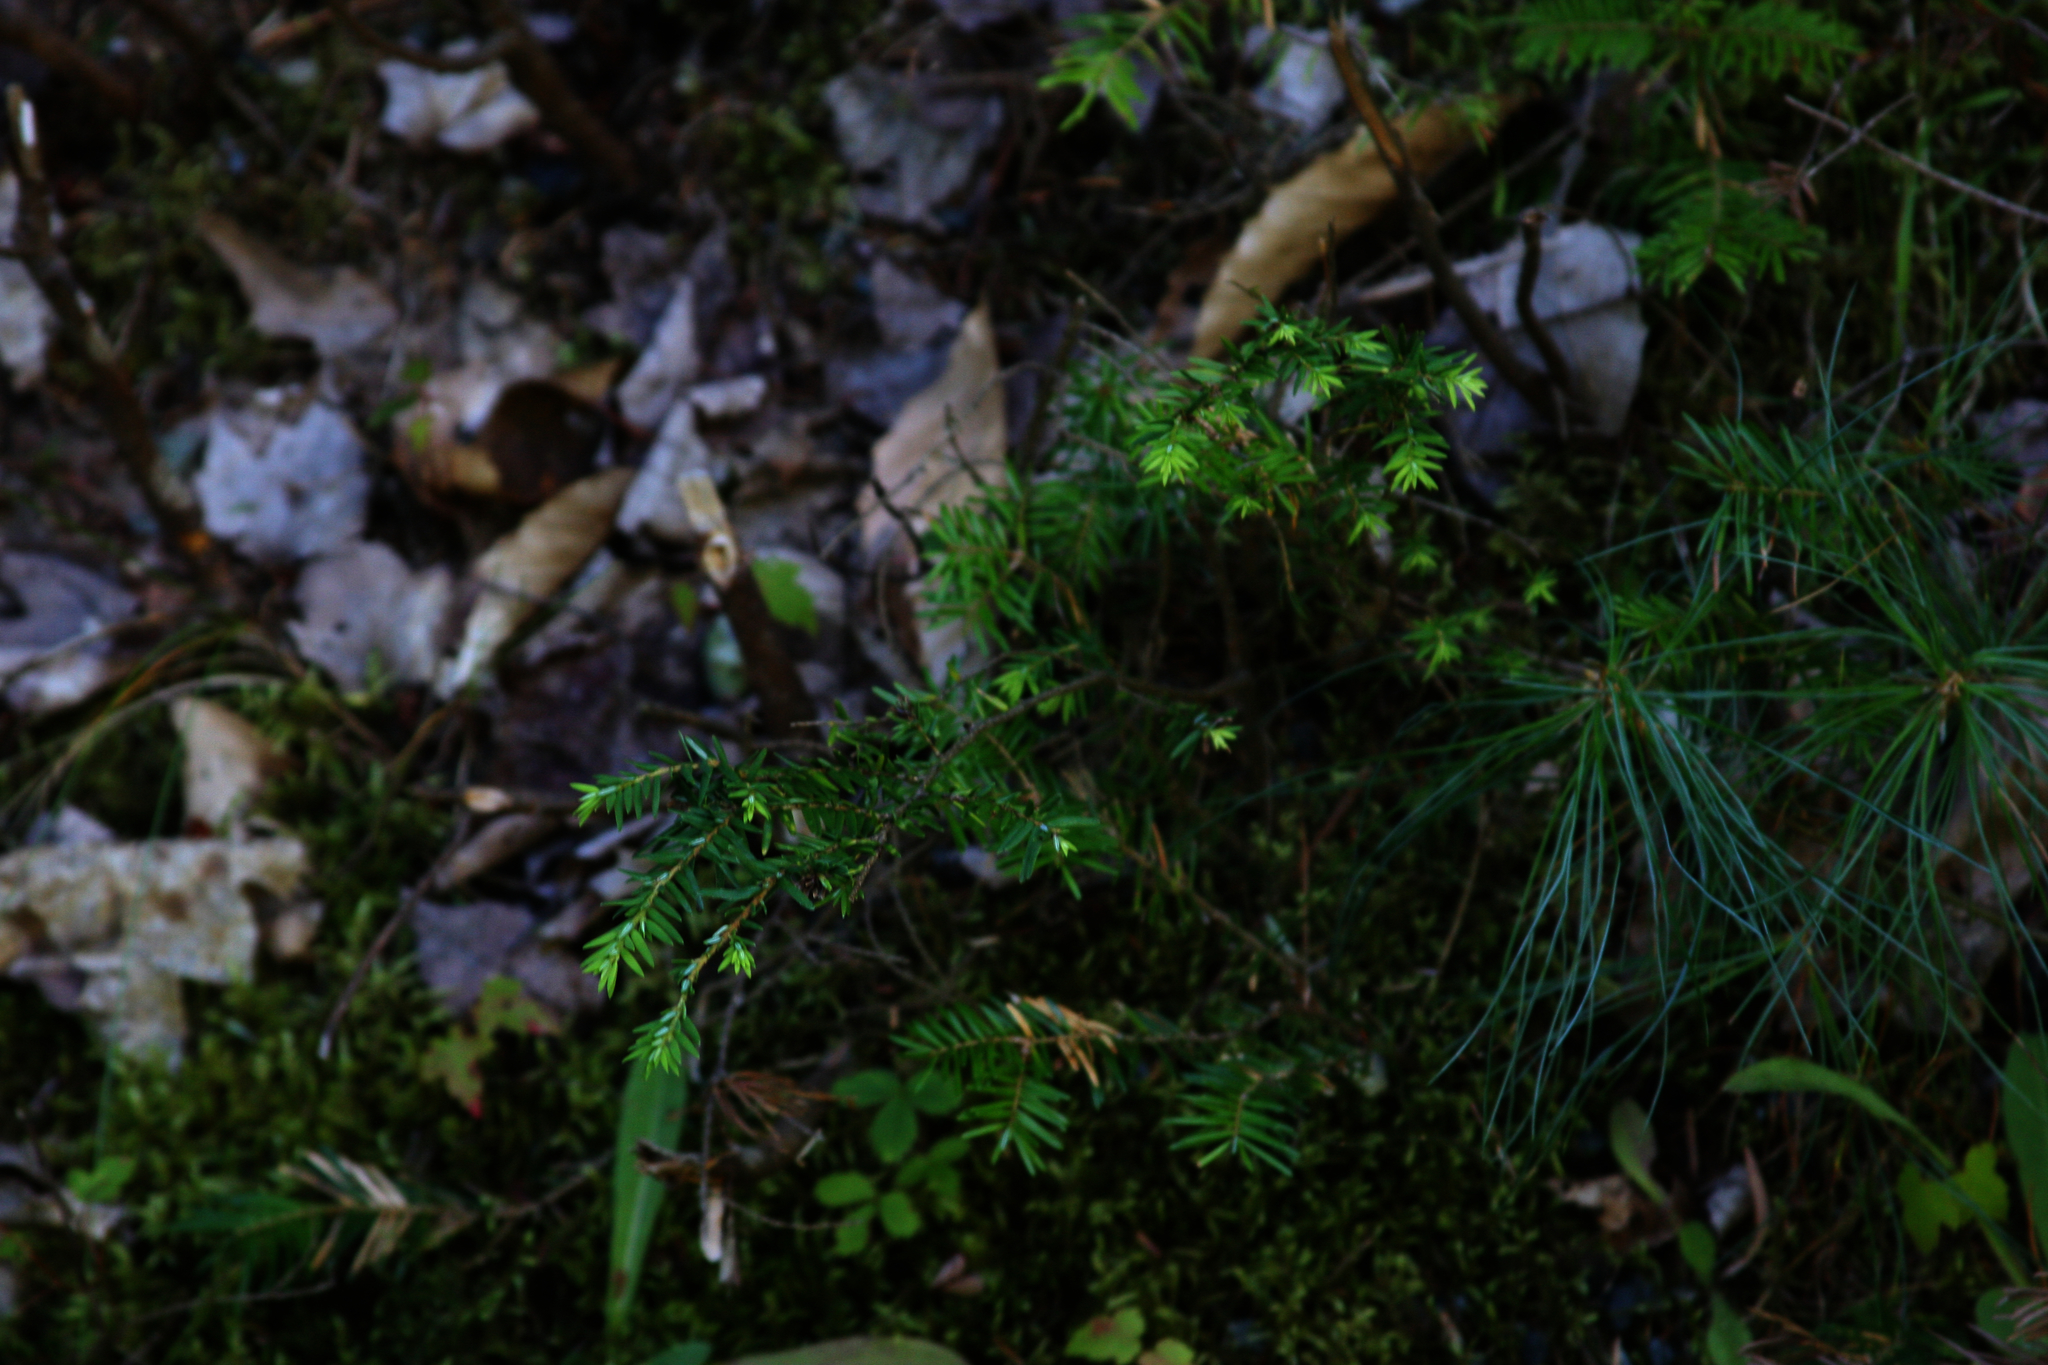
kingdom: Plantae
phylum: Tracheophyta
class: Pinopsida
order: Pinales
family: Pinaceae
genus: Tsuga
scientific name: Tsuga canadensis
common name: Eastern hemlock
